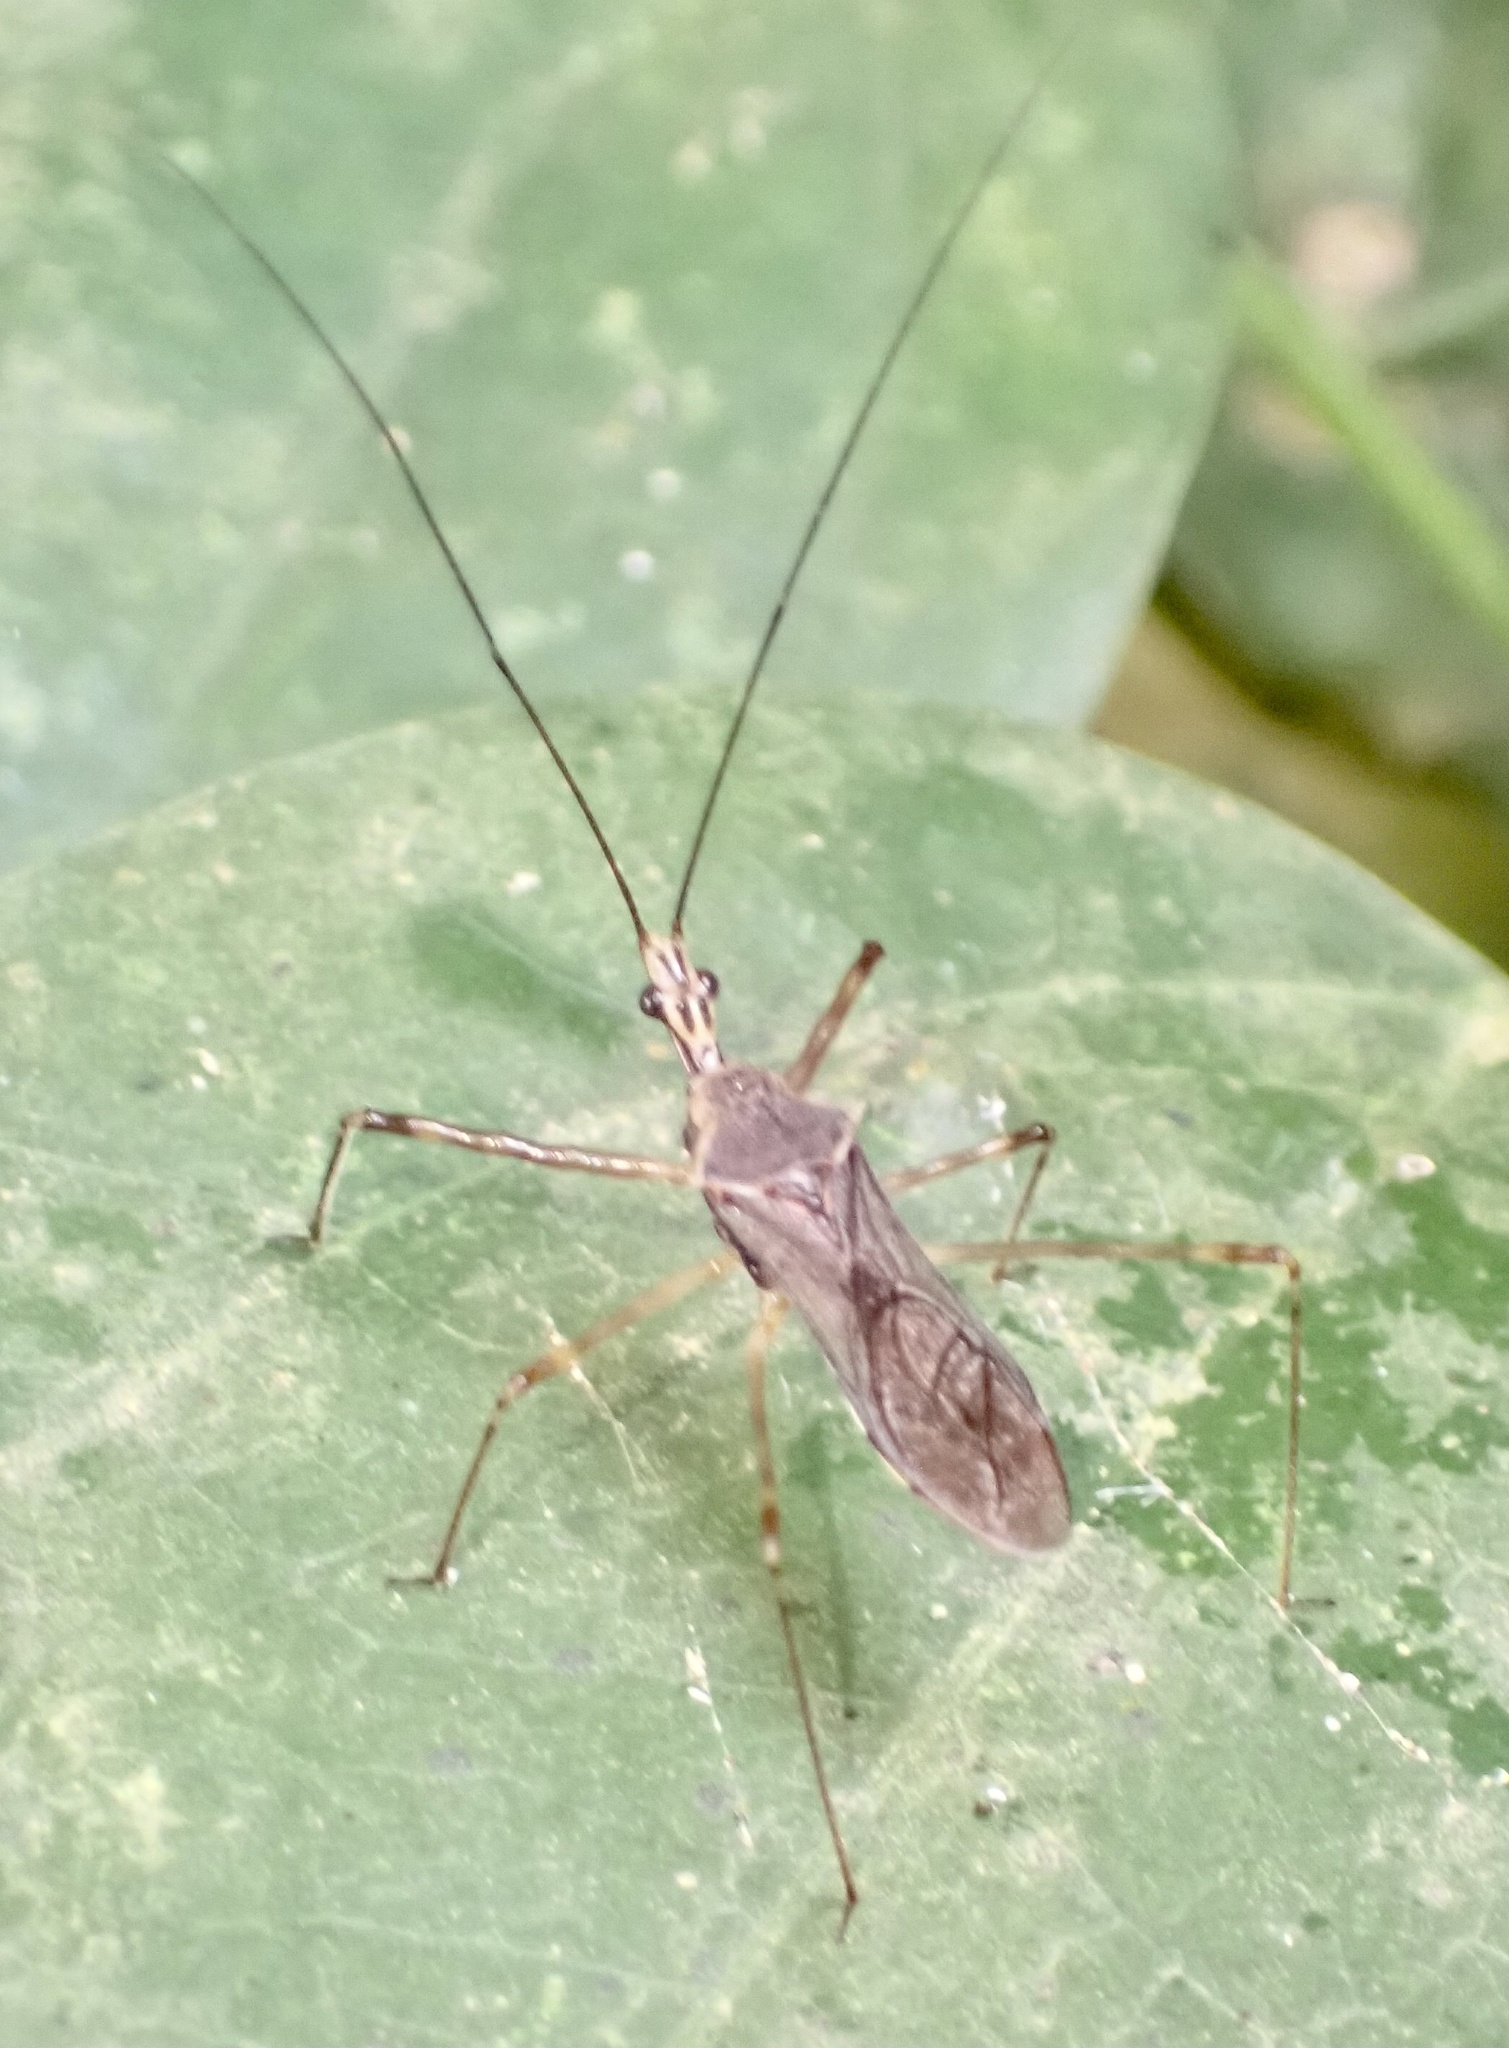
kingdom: Animalia
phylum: Arthropoda
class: Insecta
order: Hemiptera
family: Reduviidae
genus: Vestula
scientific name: Vestula lineaticeps
